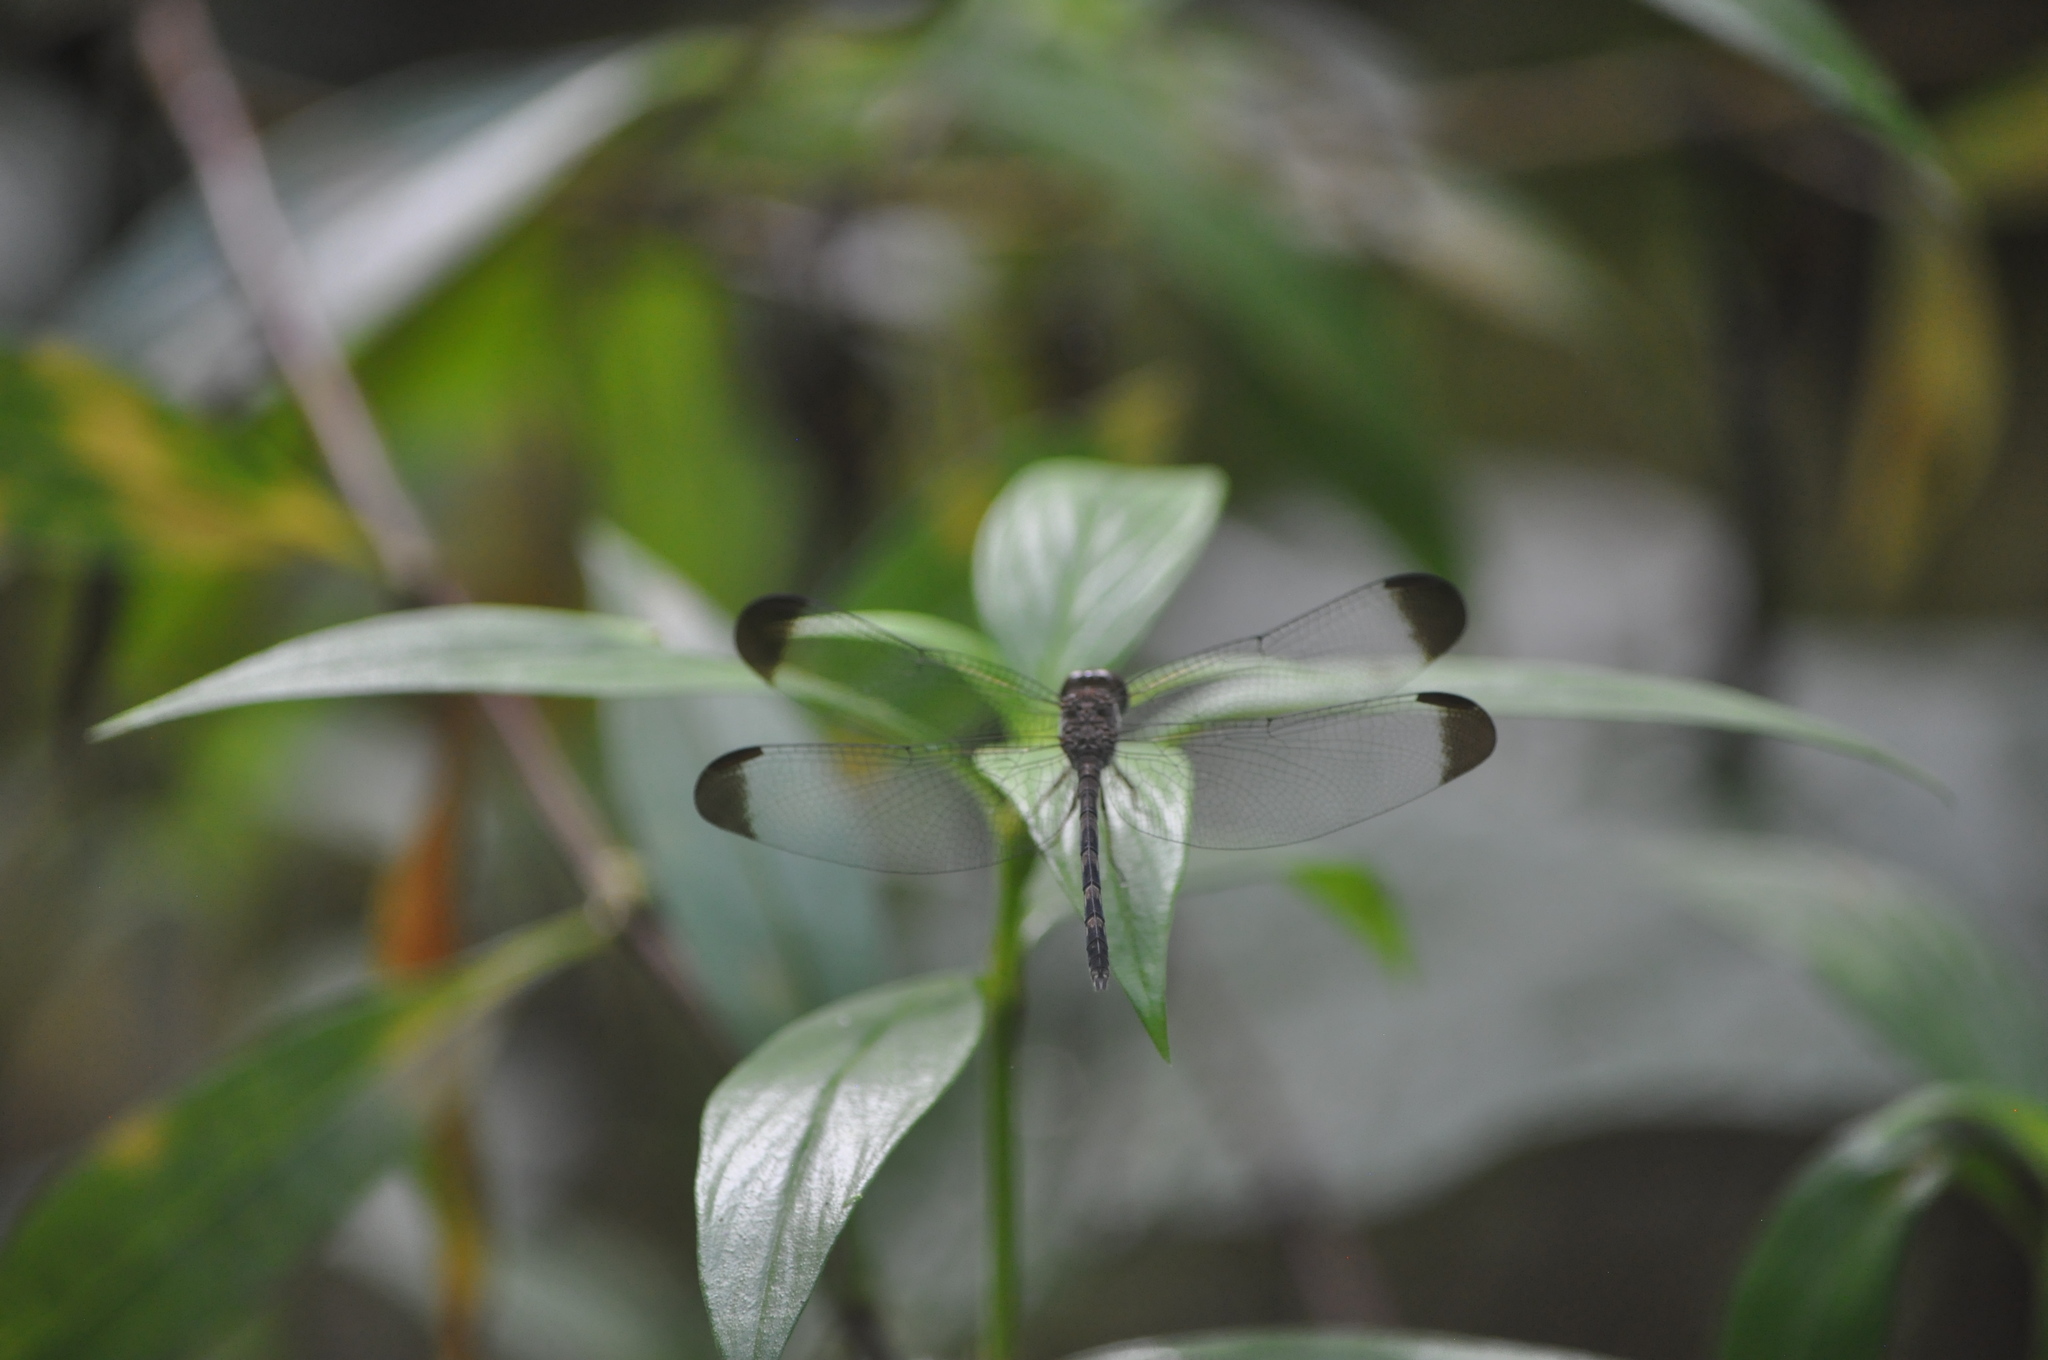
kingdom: Animalia
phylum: Arthropoda
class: Insecta
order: Odonata
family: Libellulidae
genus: Uracis
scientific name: Uracis imbuta
